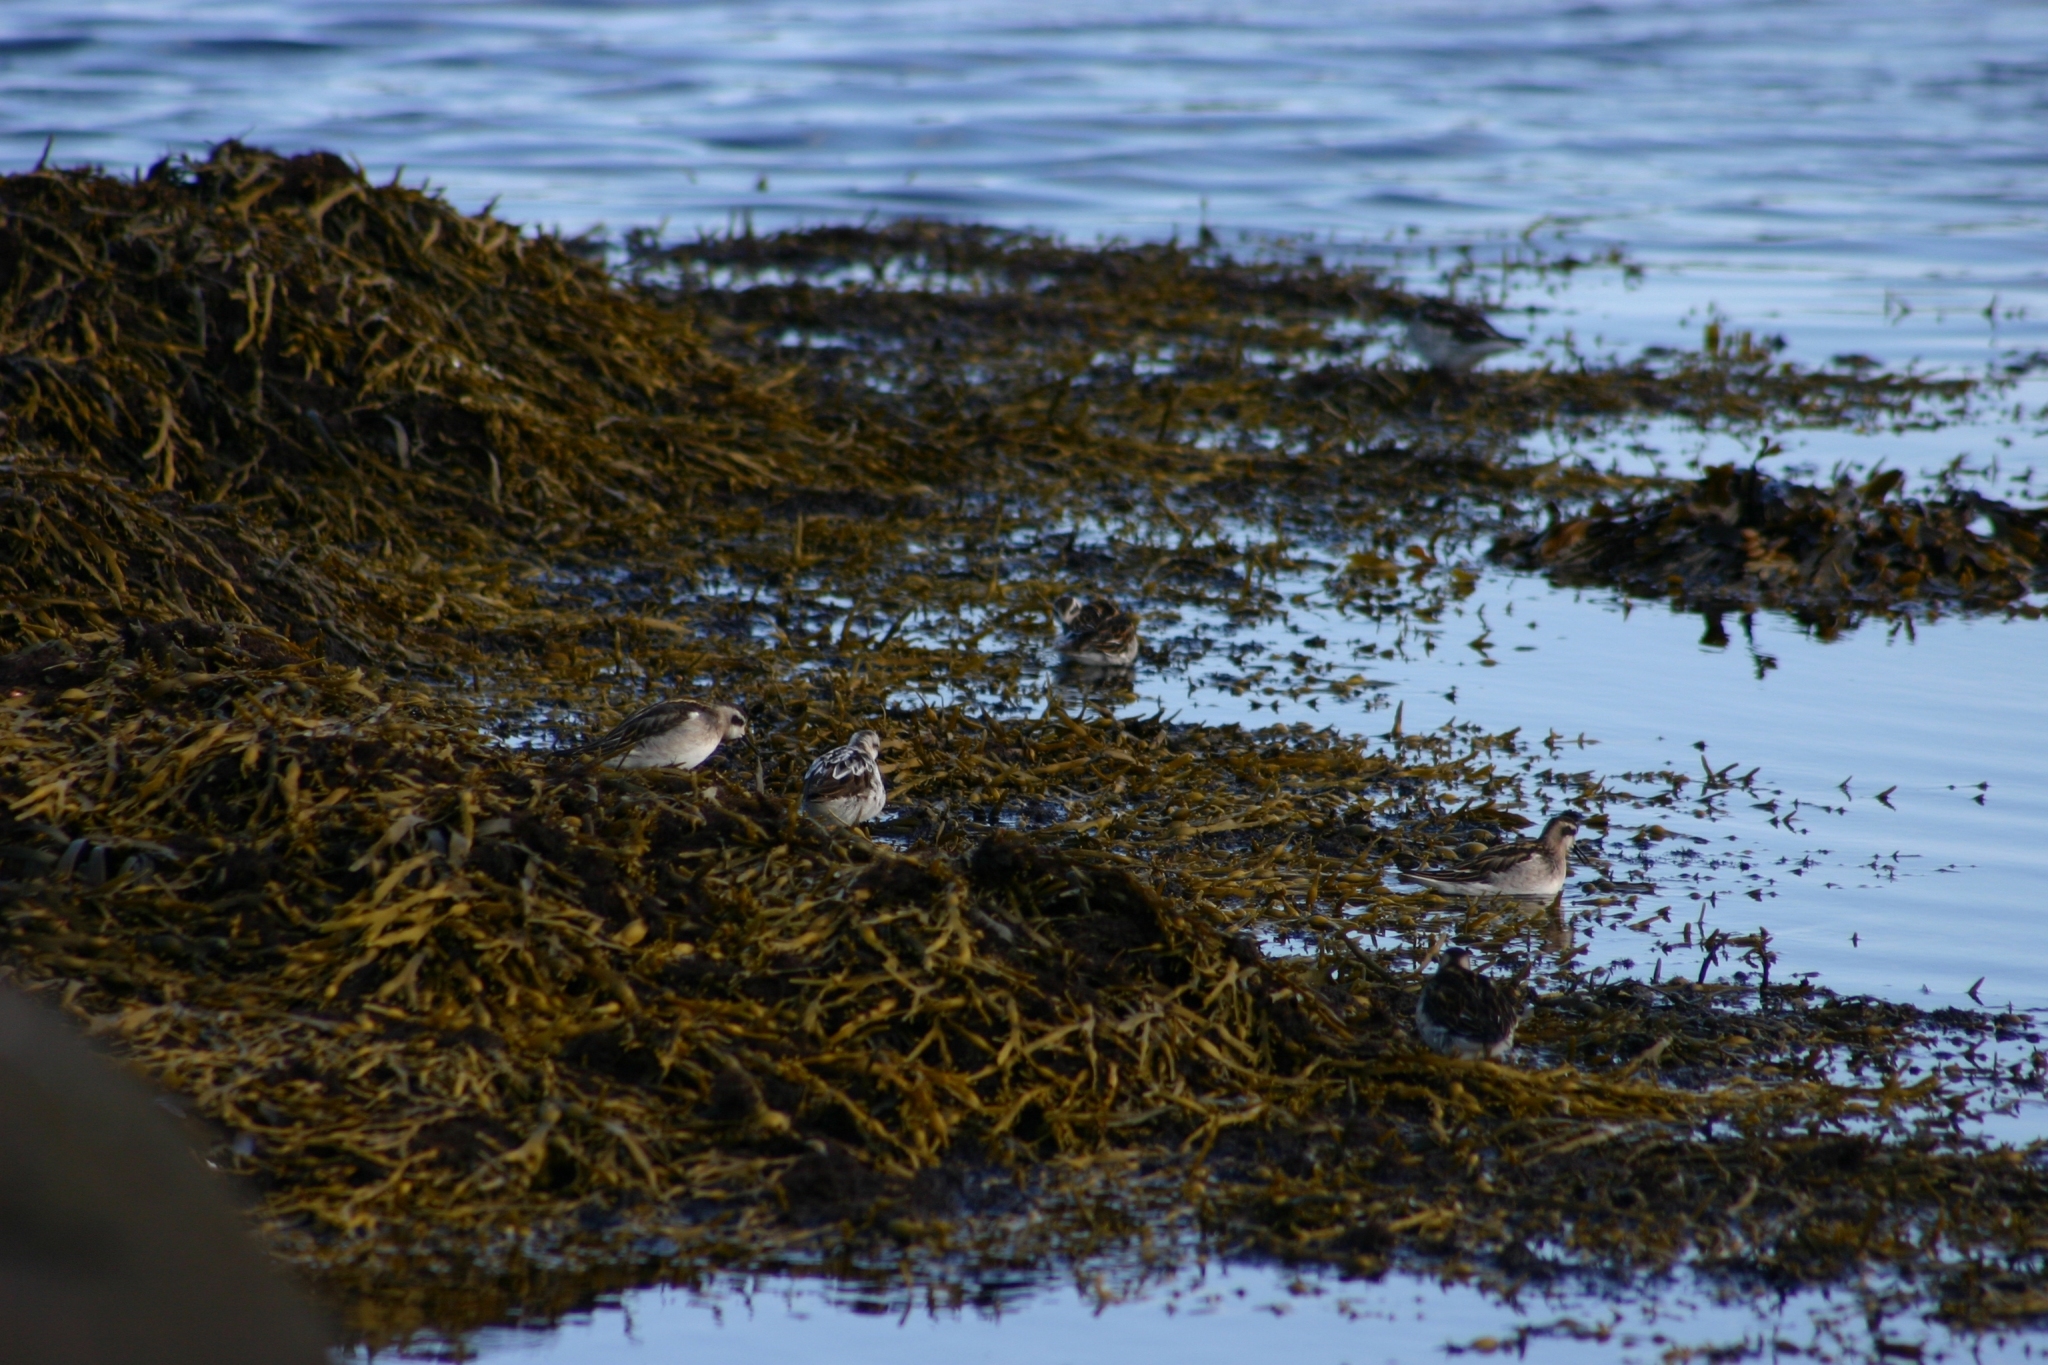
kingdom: Animalia
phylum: Chordata
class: Aves
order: Charadriiformes
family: Scolopacidae
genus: Phalaropus
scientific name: Phalaropus lobatus
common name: Red-necked phalarope
